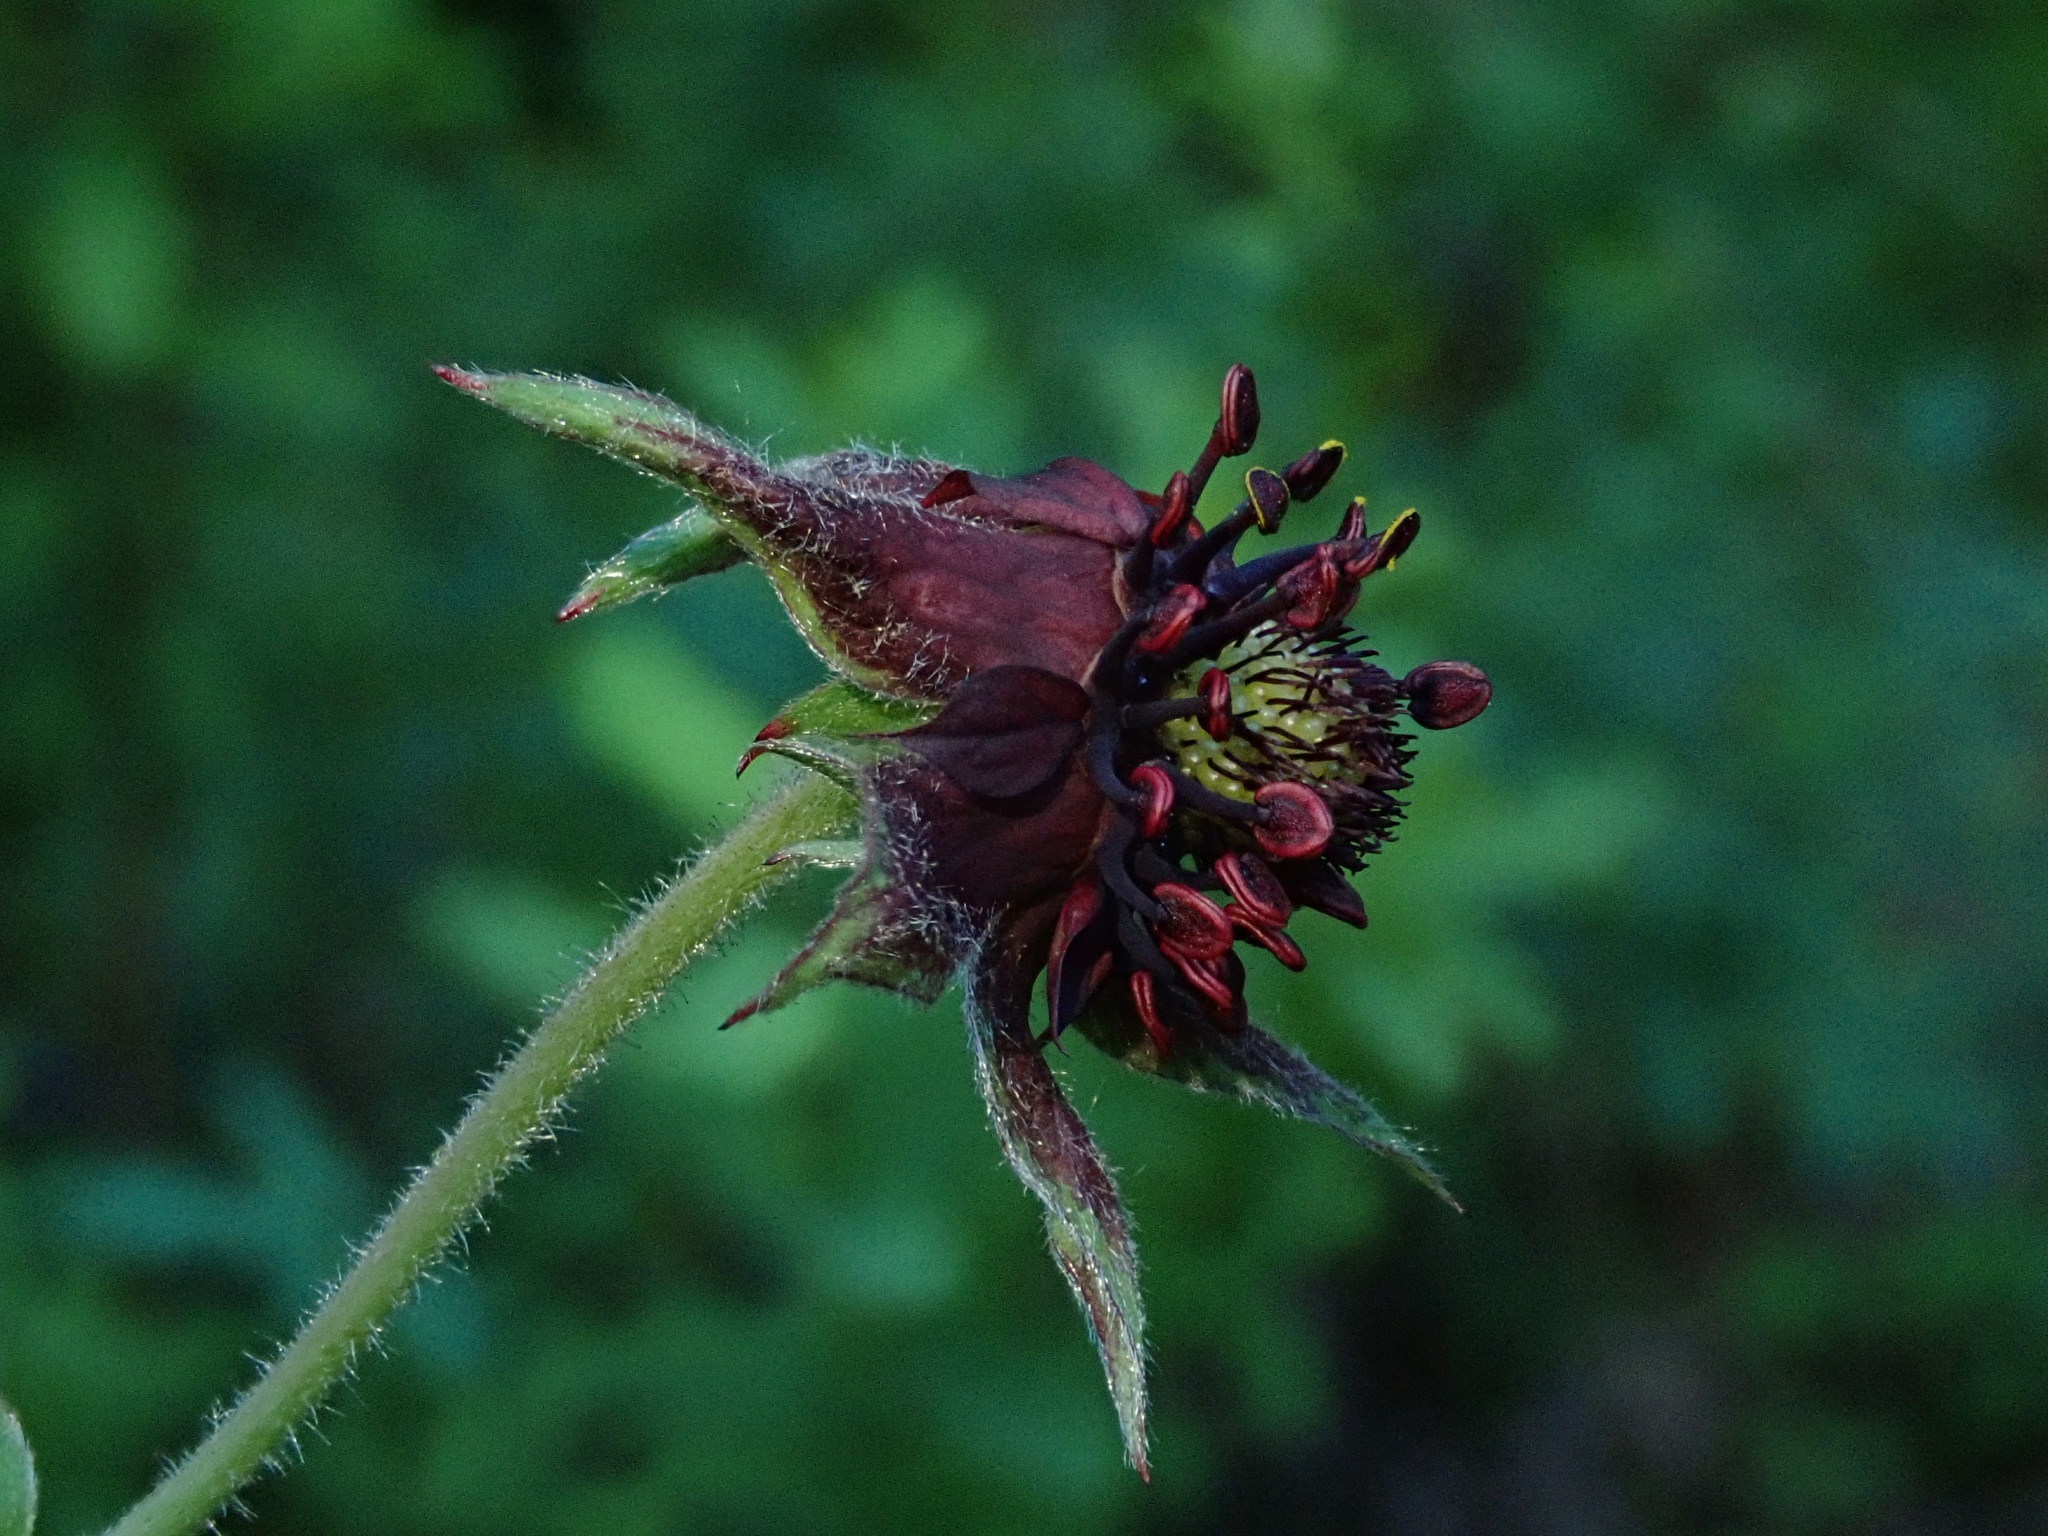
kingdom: Plantae
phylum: Tracheophyta
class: Magnoliopsida
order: Rosales
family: Rosaceae
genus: Comarum
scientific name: Comarum palustre
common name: Marsh cinquefoil
